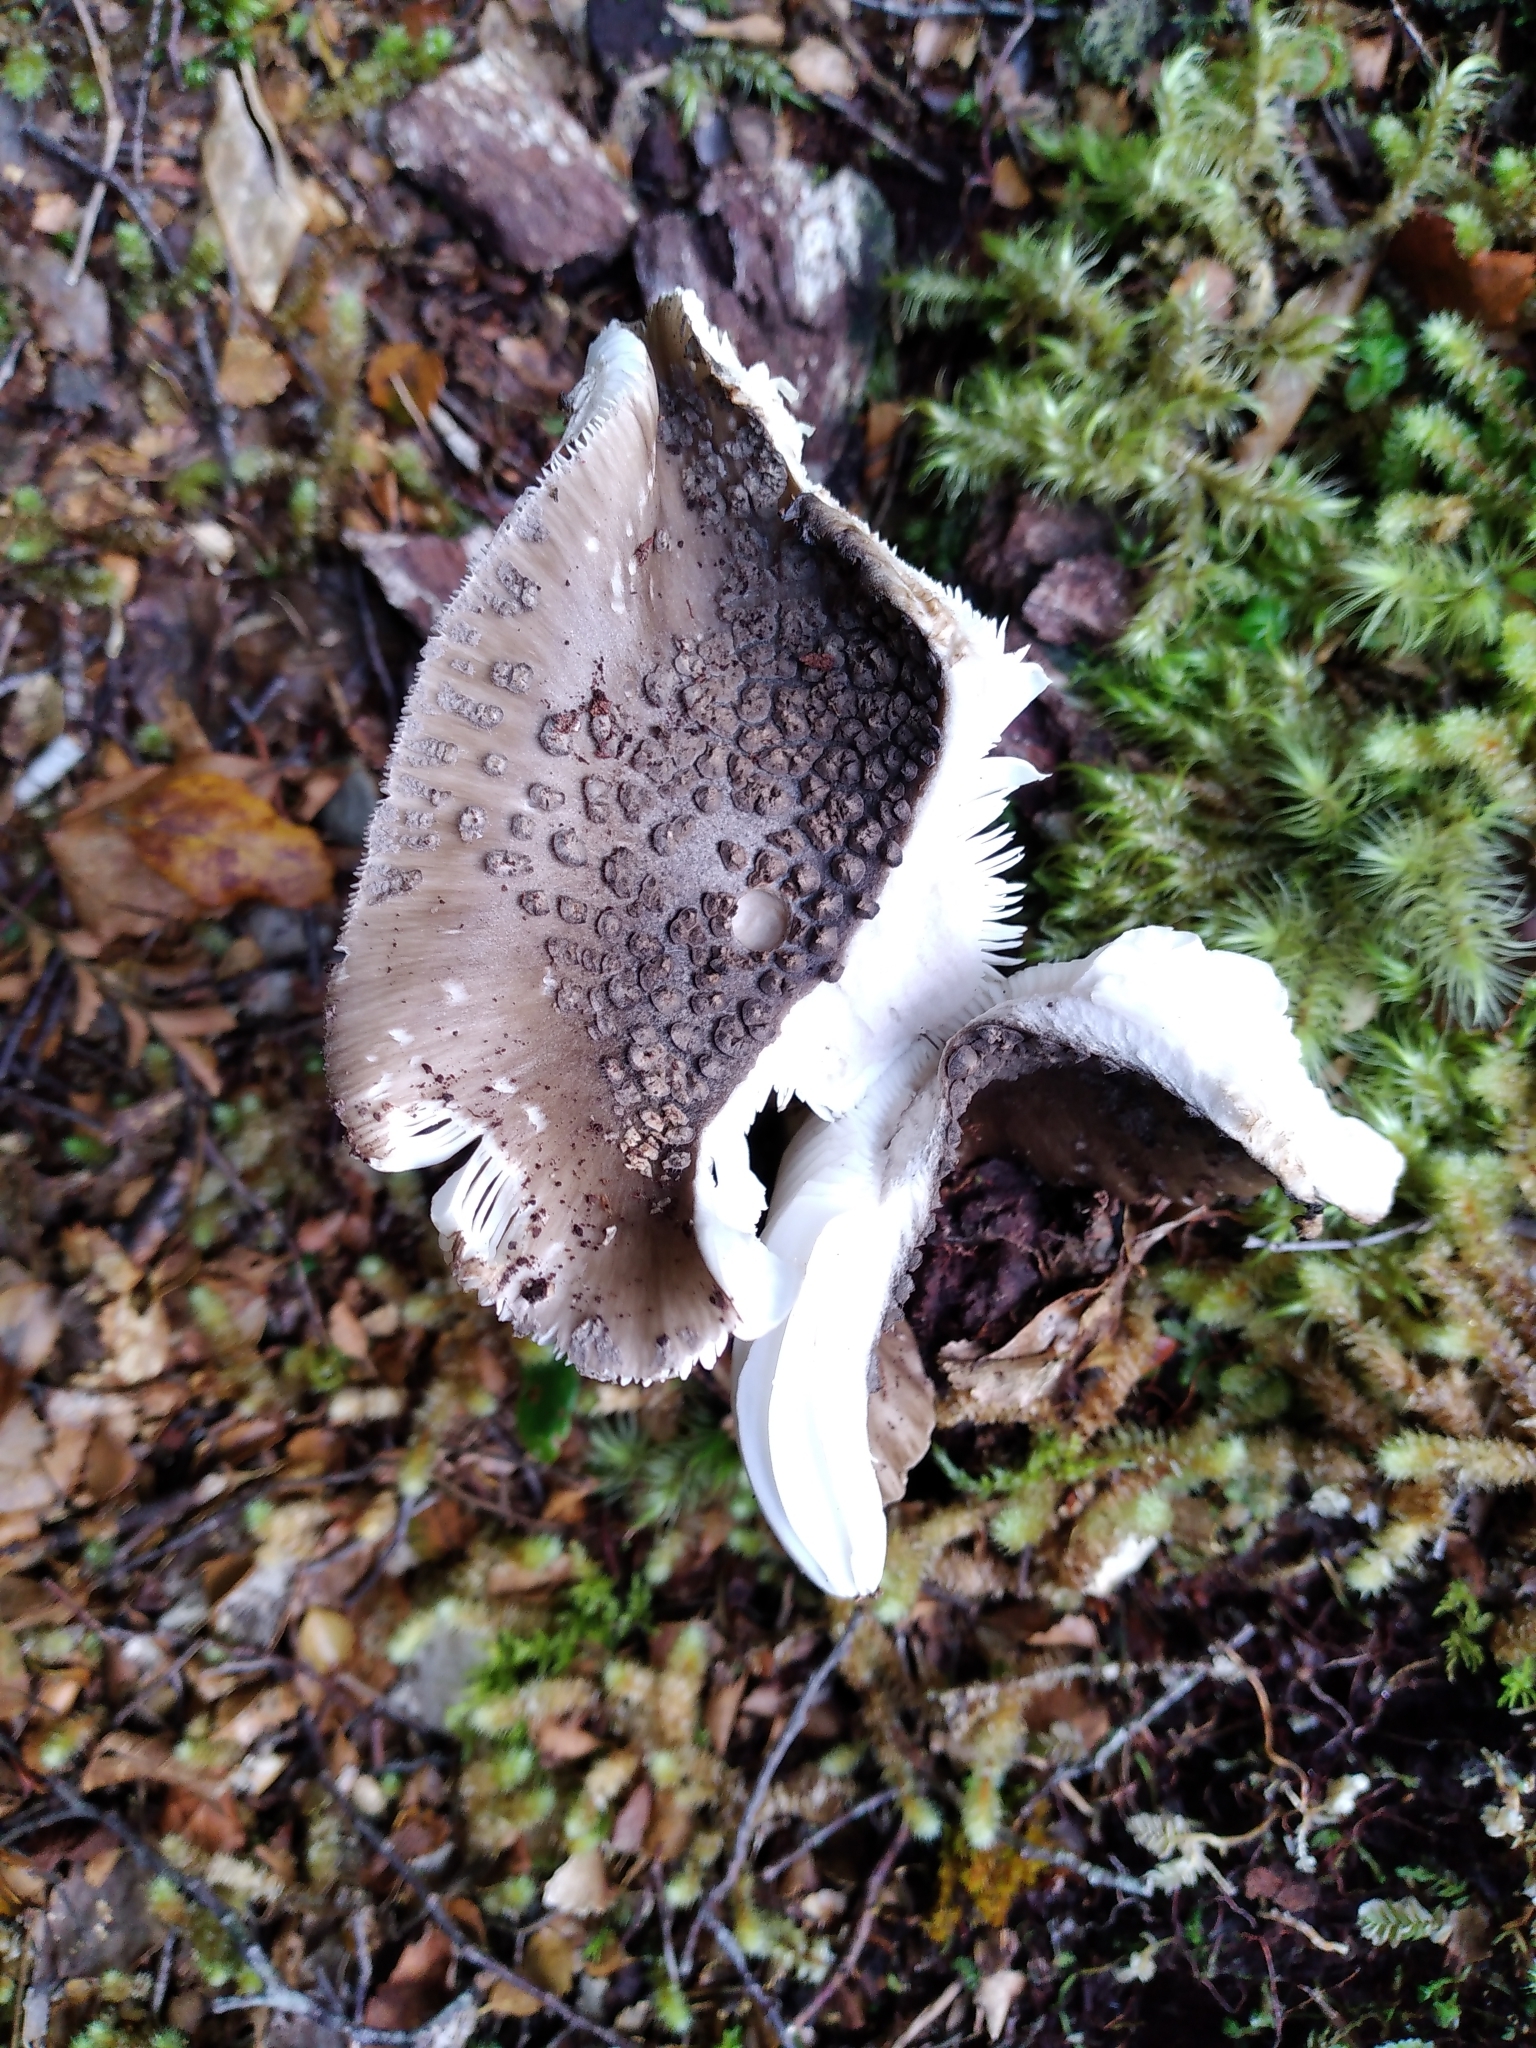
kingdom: Fungi
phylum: Basidiomycota
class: Agaricomycetes
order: Agaricales
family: Amanitaceae
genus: Amanita
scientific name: Amanita nothofagi
